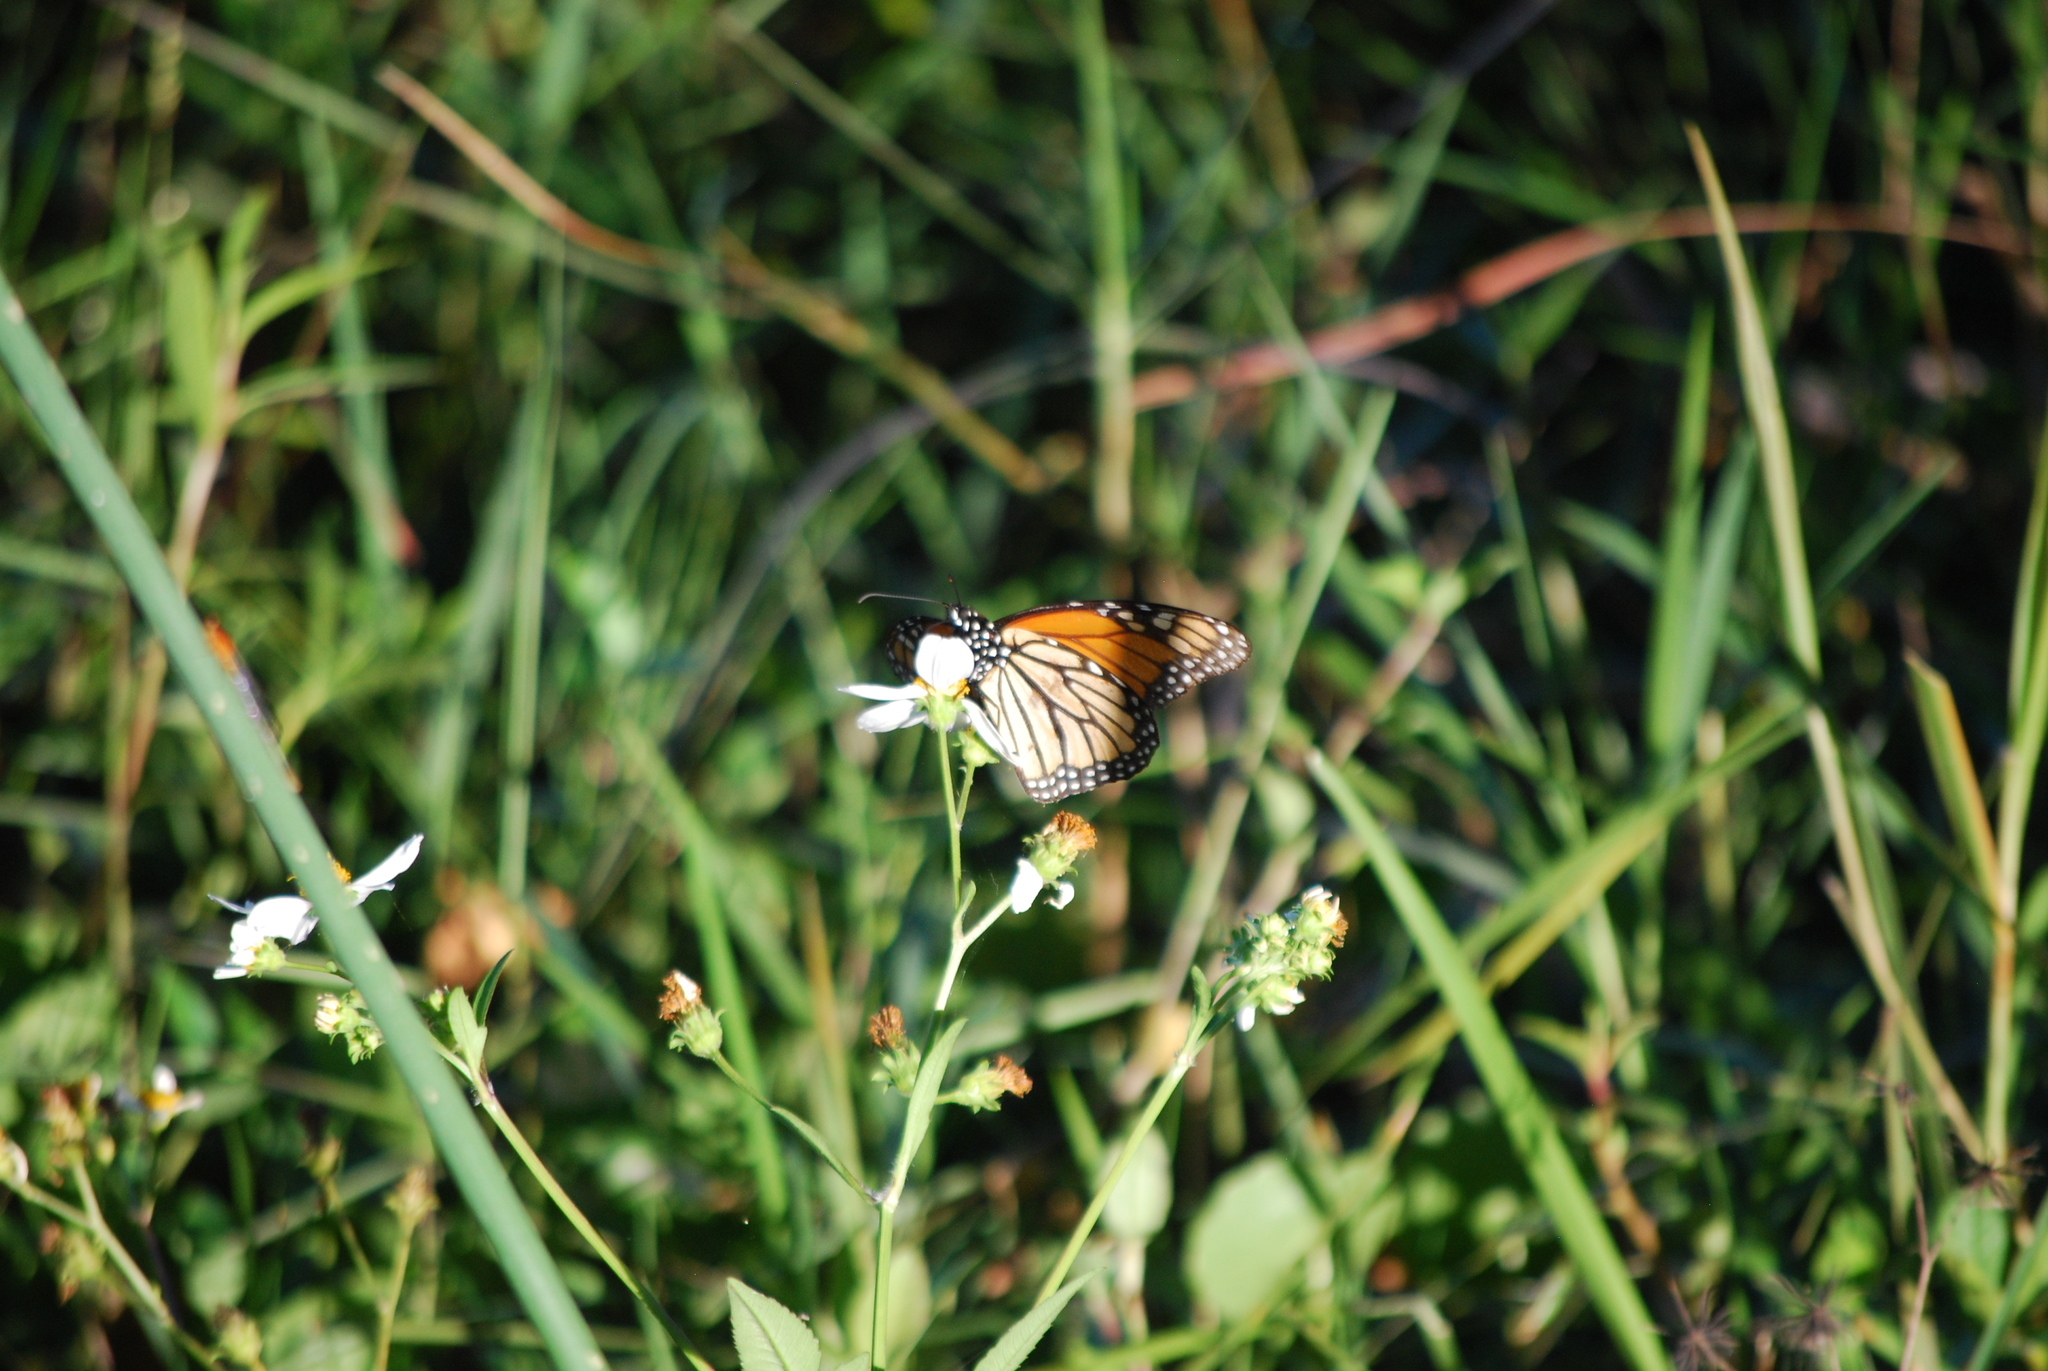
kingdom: Animalia
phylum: Arthropoda
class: Insecta
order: Lepidoptera
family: Nymphalidae
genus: Danaus
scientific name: Danaus plexippus
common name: Monarch
